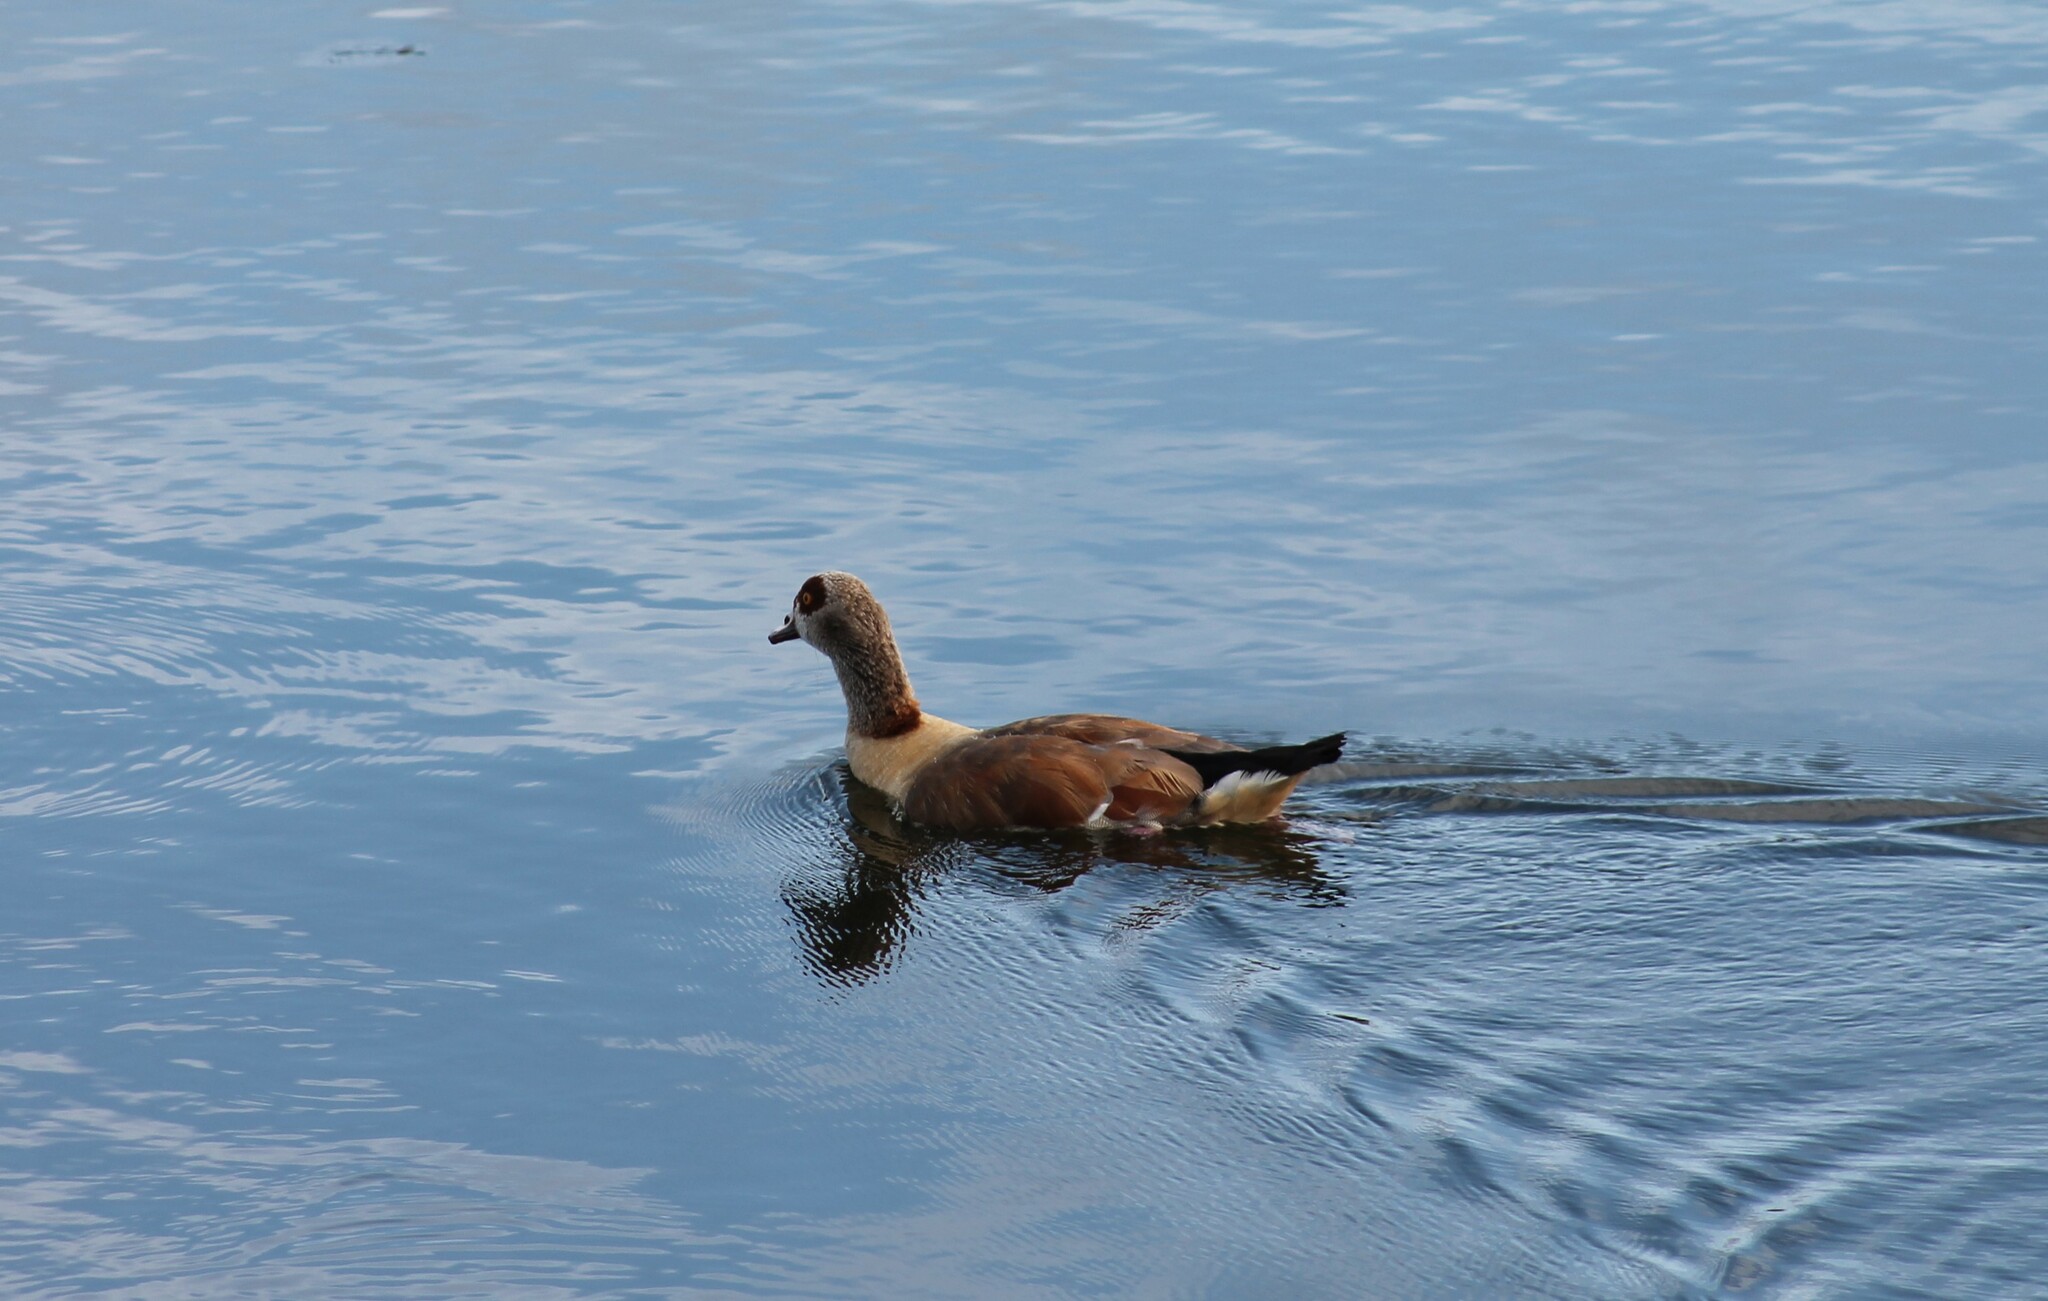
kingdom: Animalia
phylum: Chordata
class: Aves
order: Anseriformes
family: Anatidae
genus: Alopochen
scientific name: Alopochen aegyptiaca
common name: Egyptian goose
